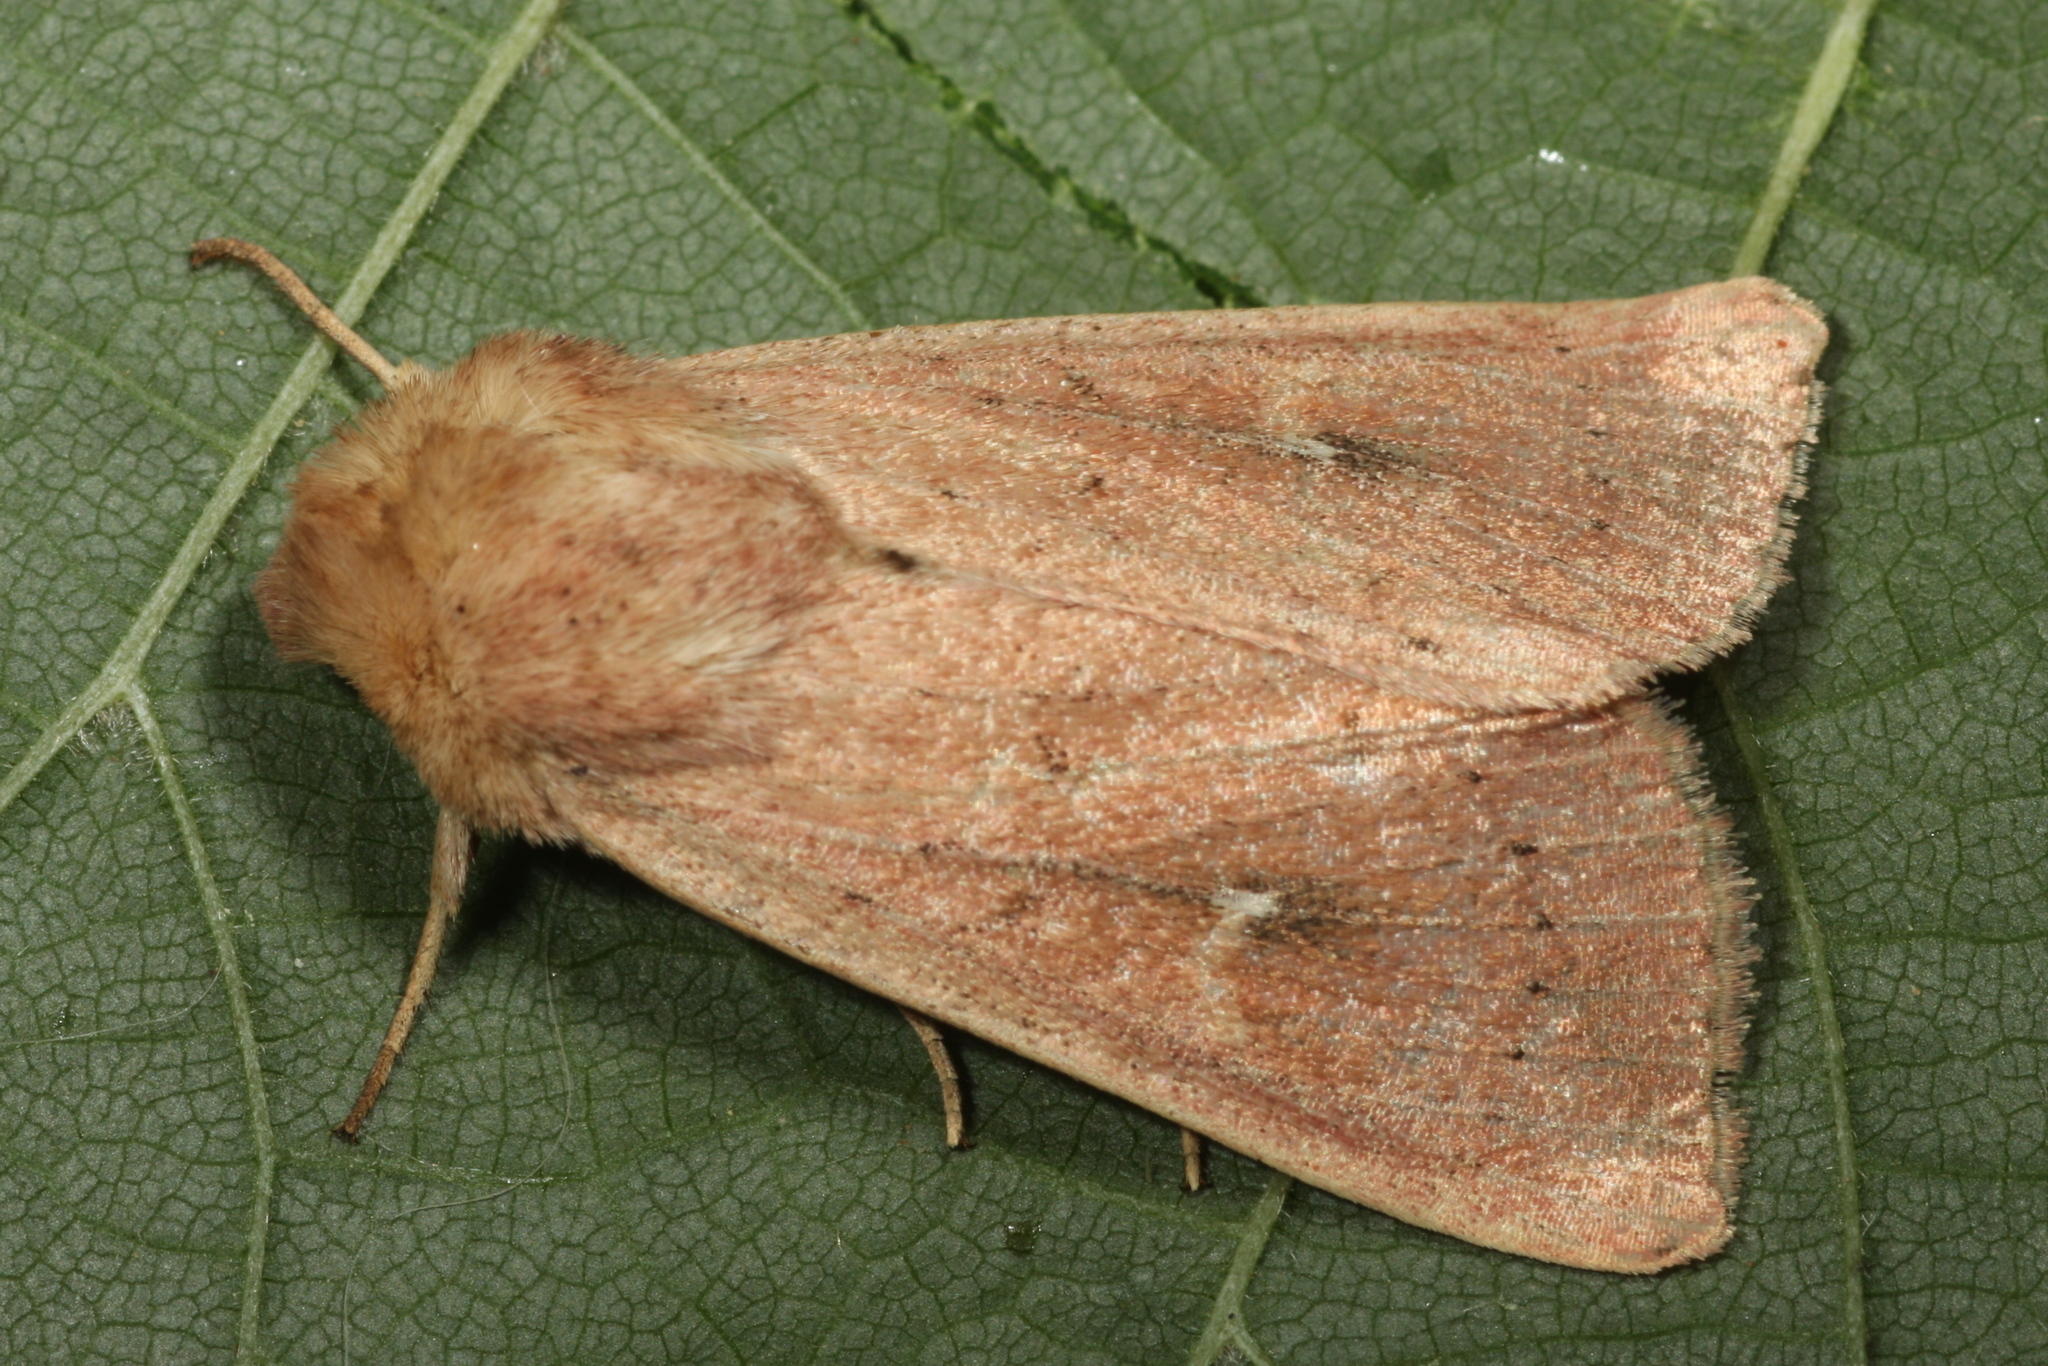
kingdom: Animalia
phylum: Arthropoda
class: Insecta
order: Lepidoptera
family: Noctuidae
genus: Mythimna
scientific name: Mythimna ferrago
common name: Clay
